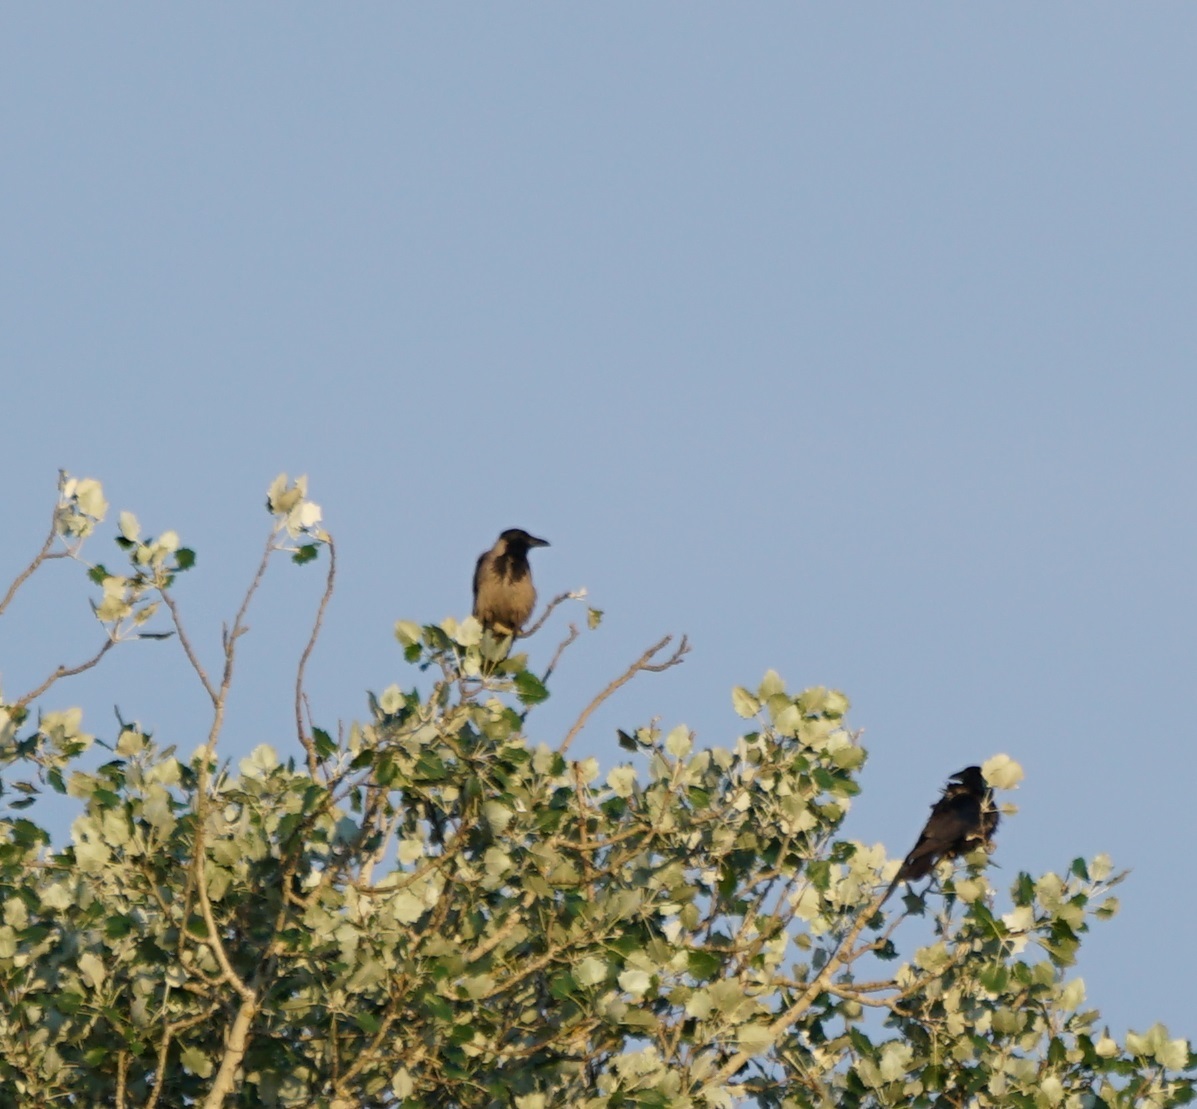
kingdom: Animalia
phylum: Chordata
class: Aves
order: Passeriformes
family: Corvidae
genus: Corvus
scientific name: Corvus cornix
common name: Hooded crow
